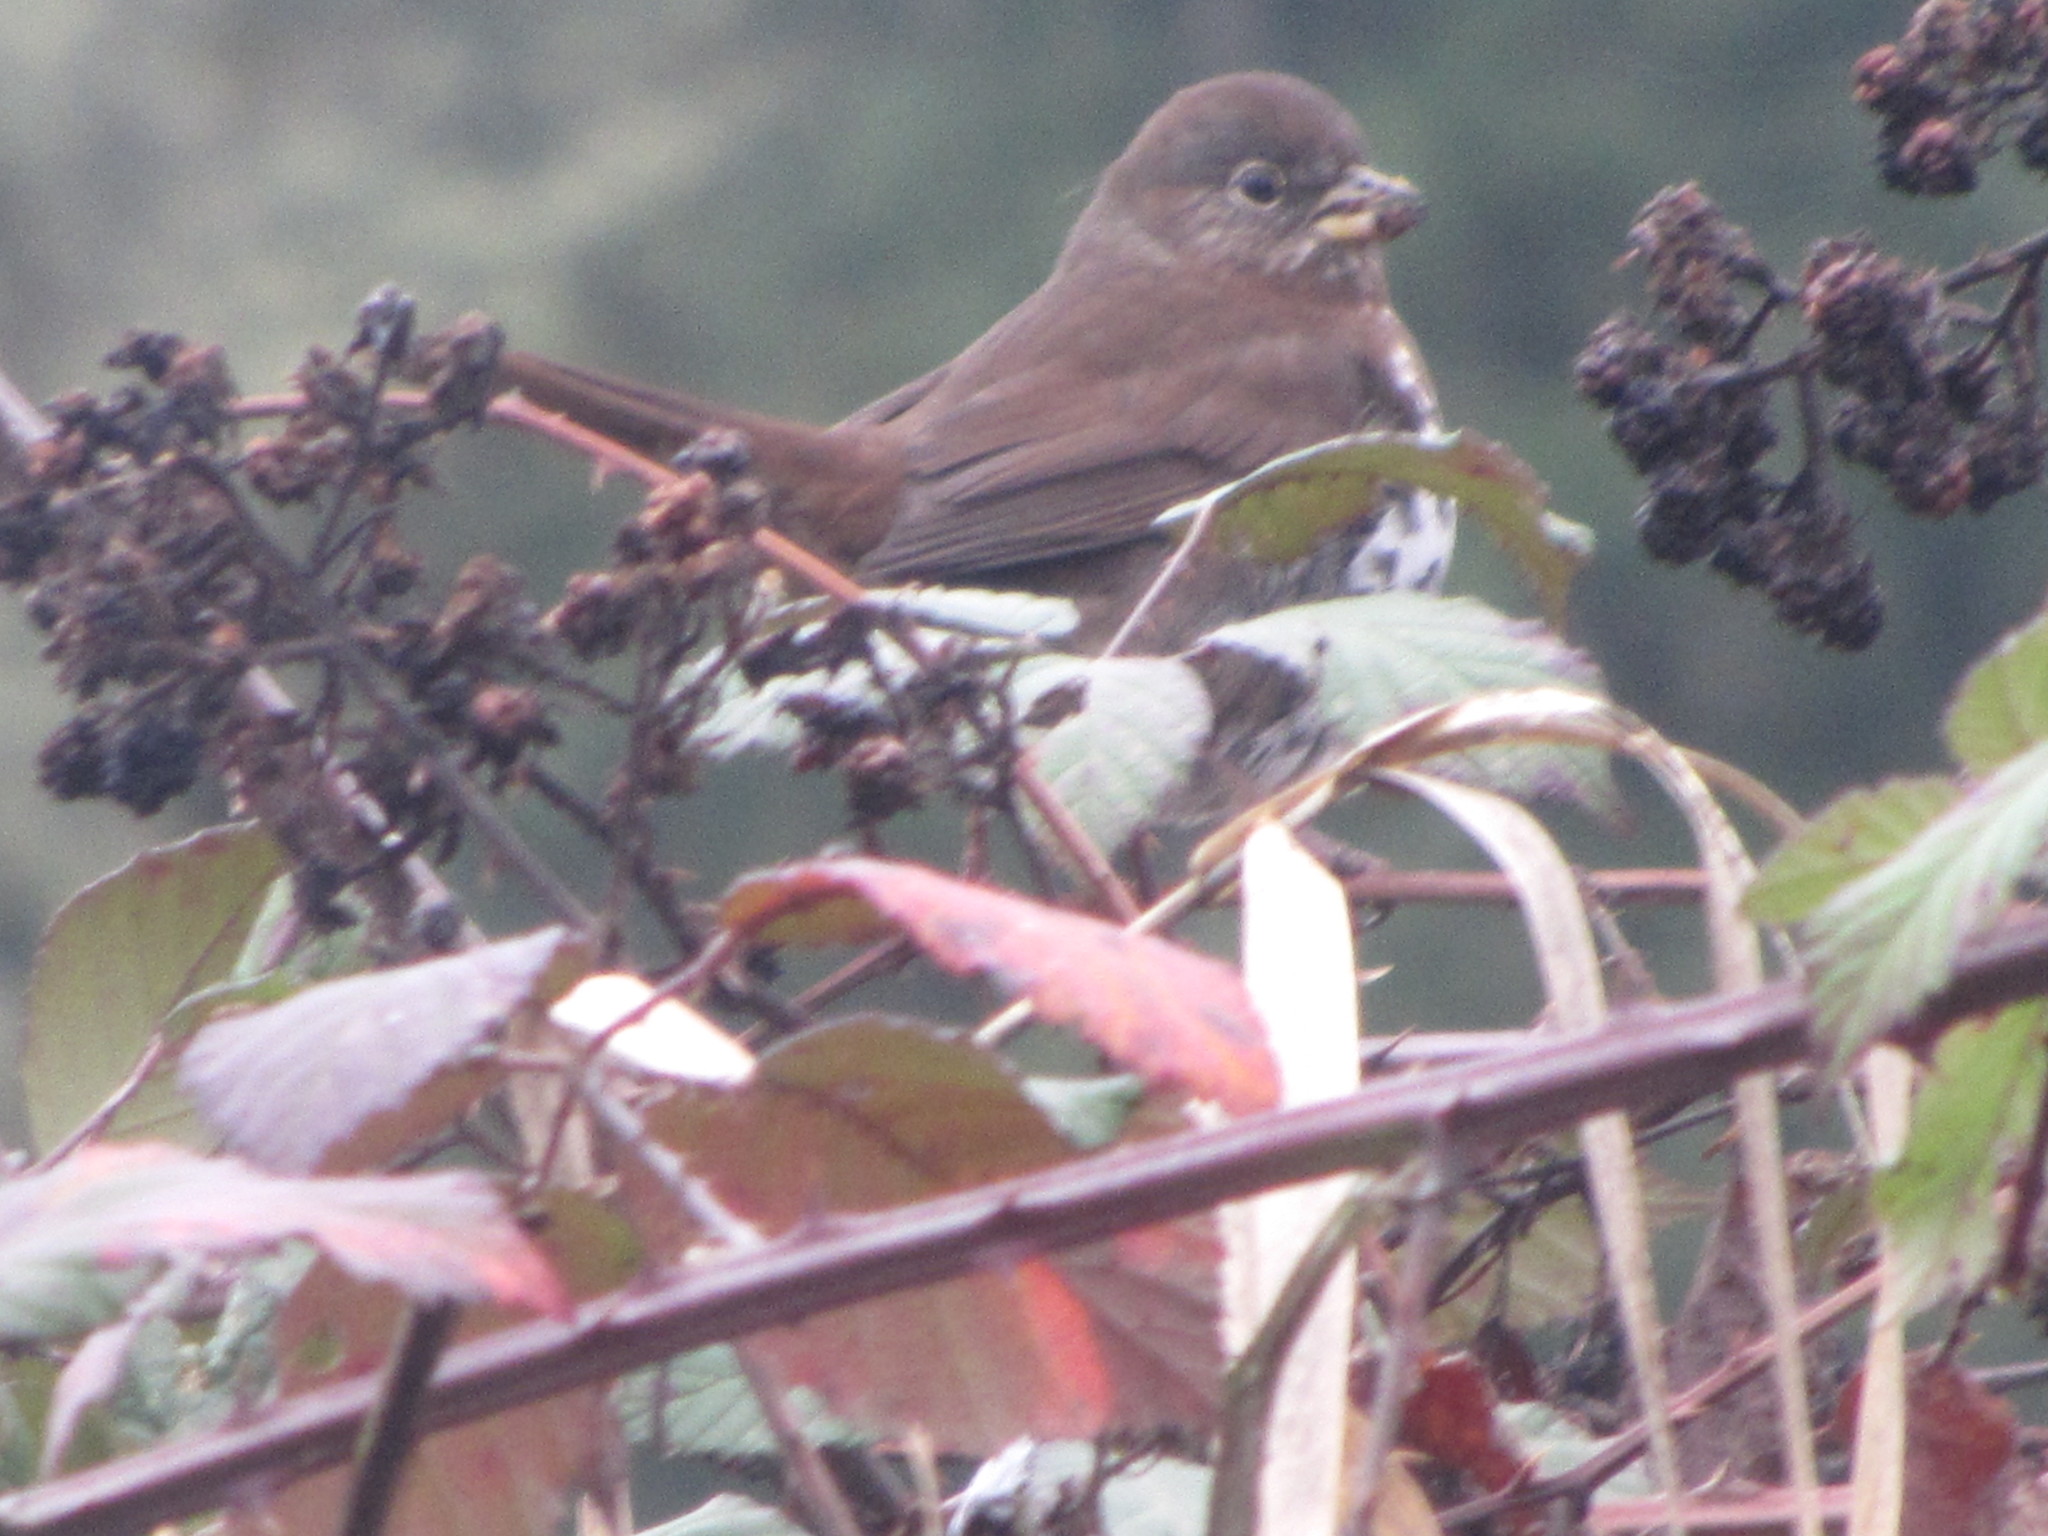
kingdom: Animalia
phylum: Chordata
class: Aves
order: Passeriformes
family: Passerellidae
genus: Passerella
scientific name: Passerella iliaca
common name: Fox sparrow
